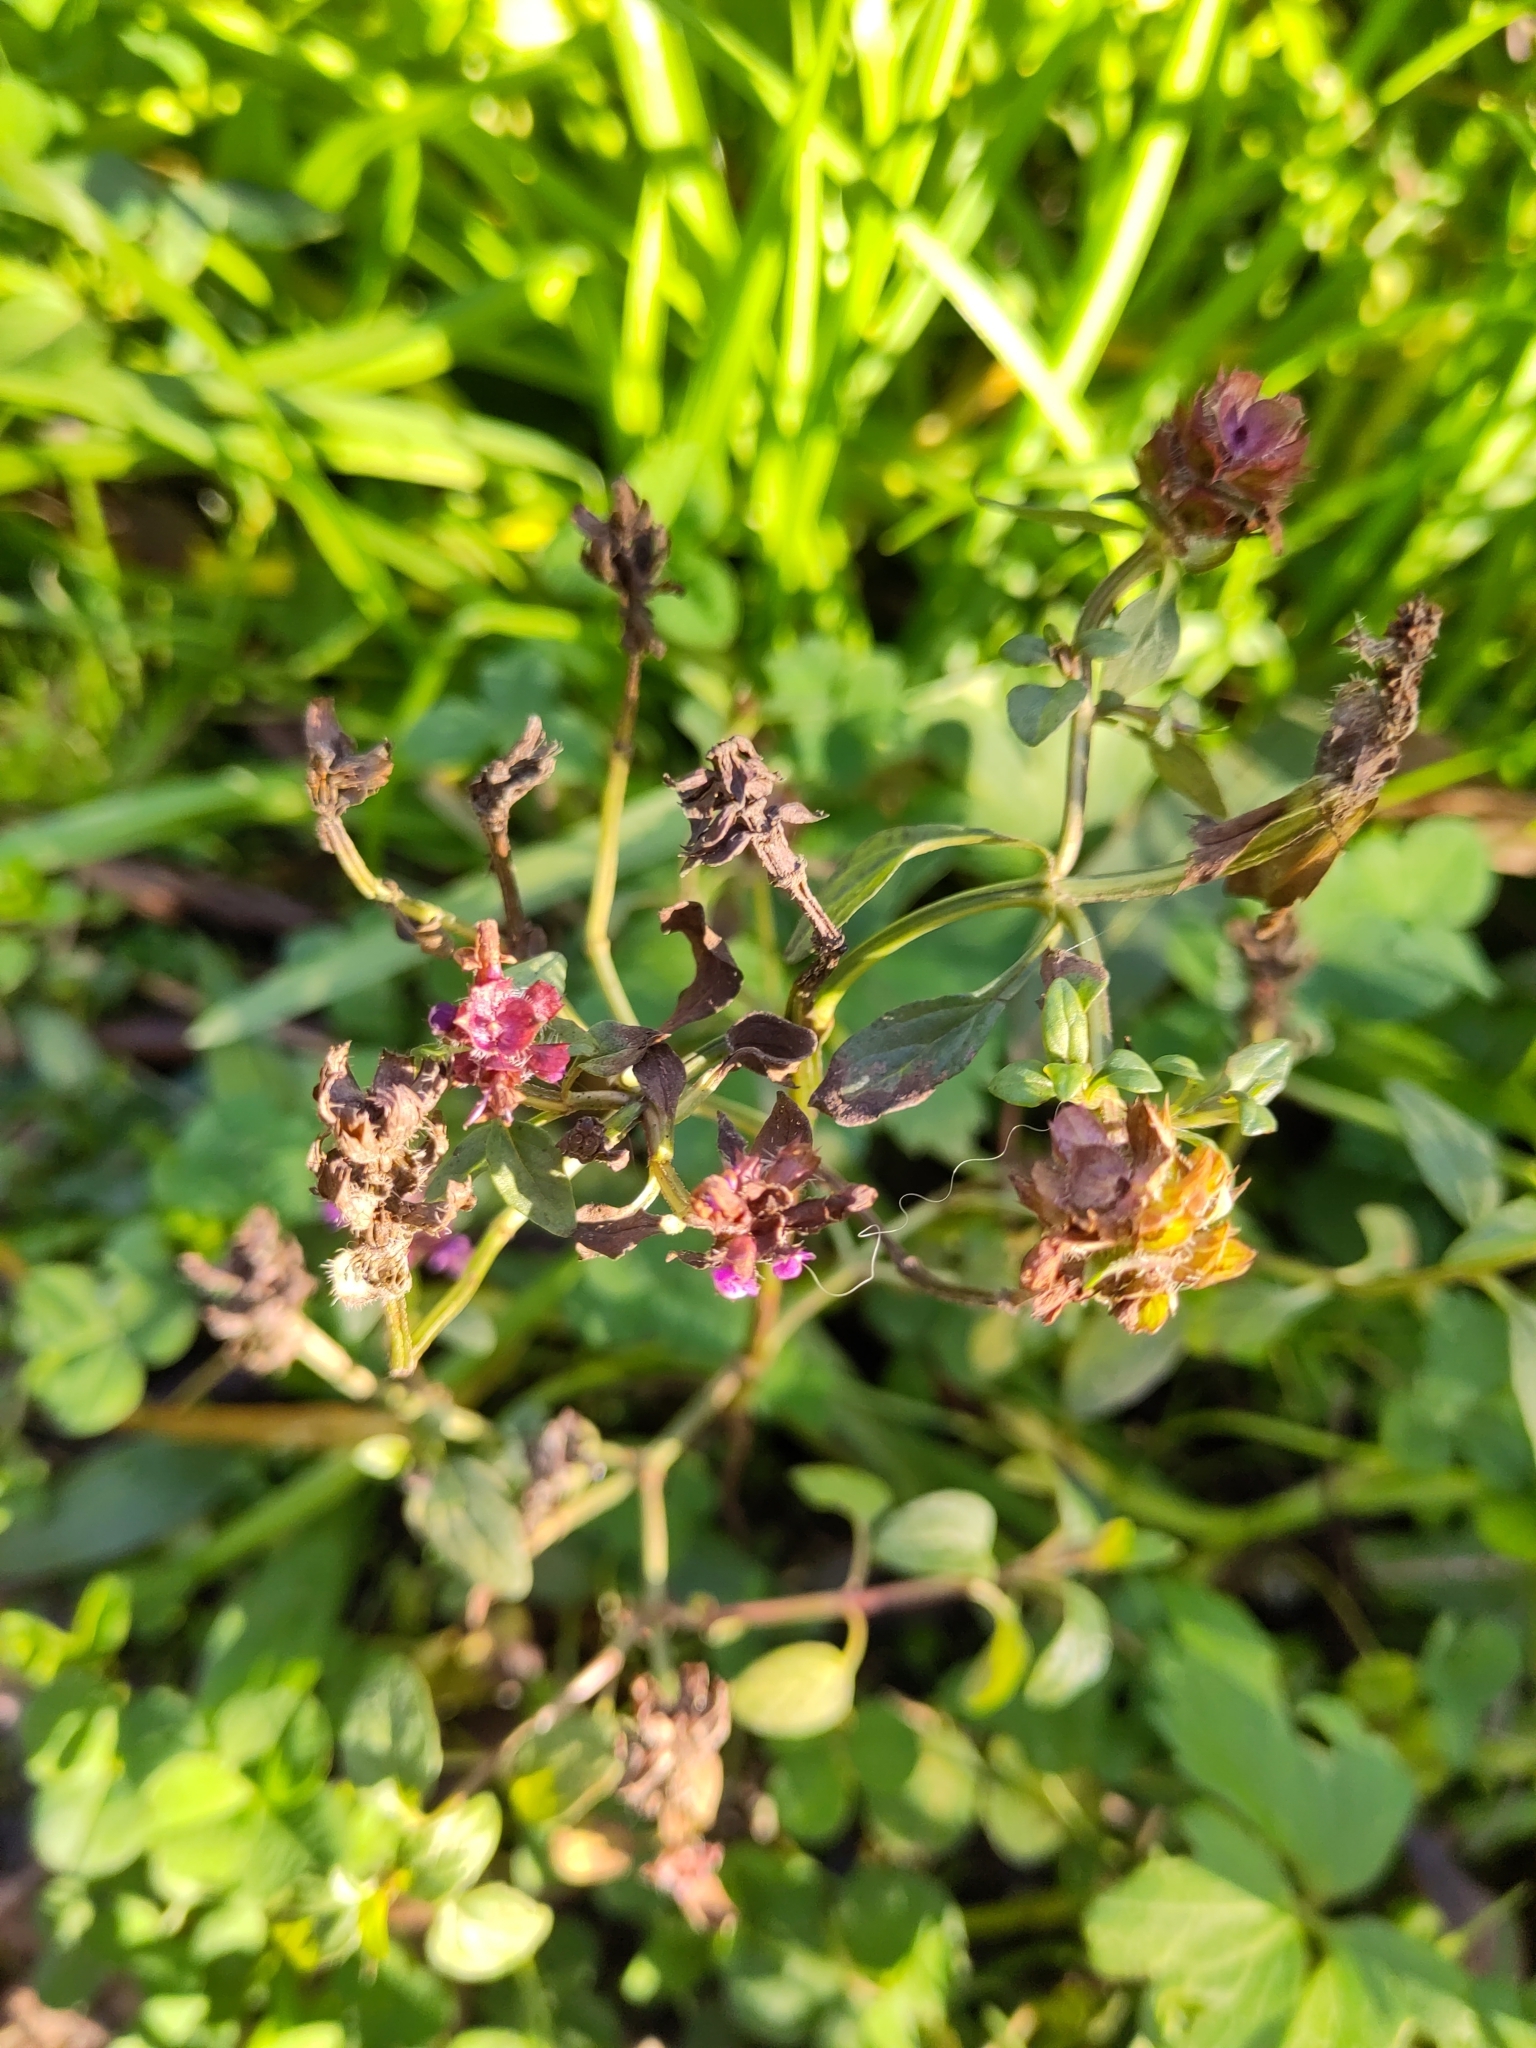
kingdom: Plantae
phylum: Tracheophyta
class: Magnoliopsida
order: Lamiales
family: Lamiaceae
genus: Prunella
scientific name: Prunella vulgaris
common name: Heal-all
